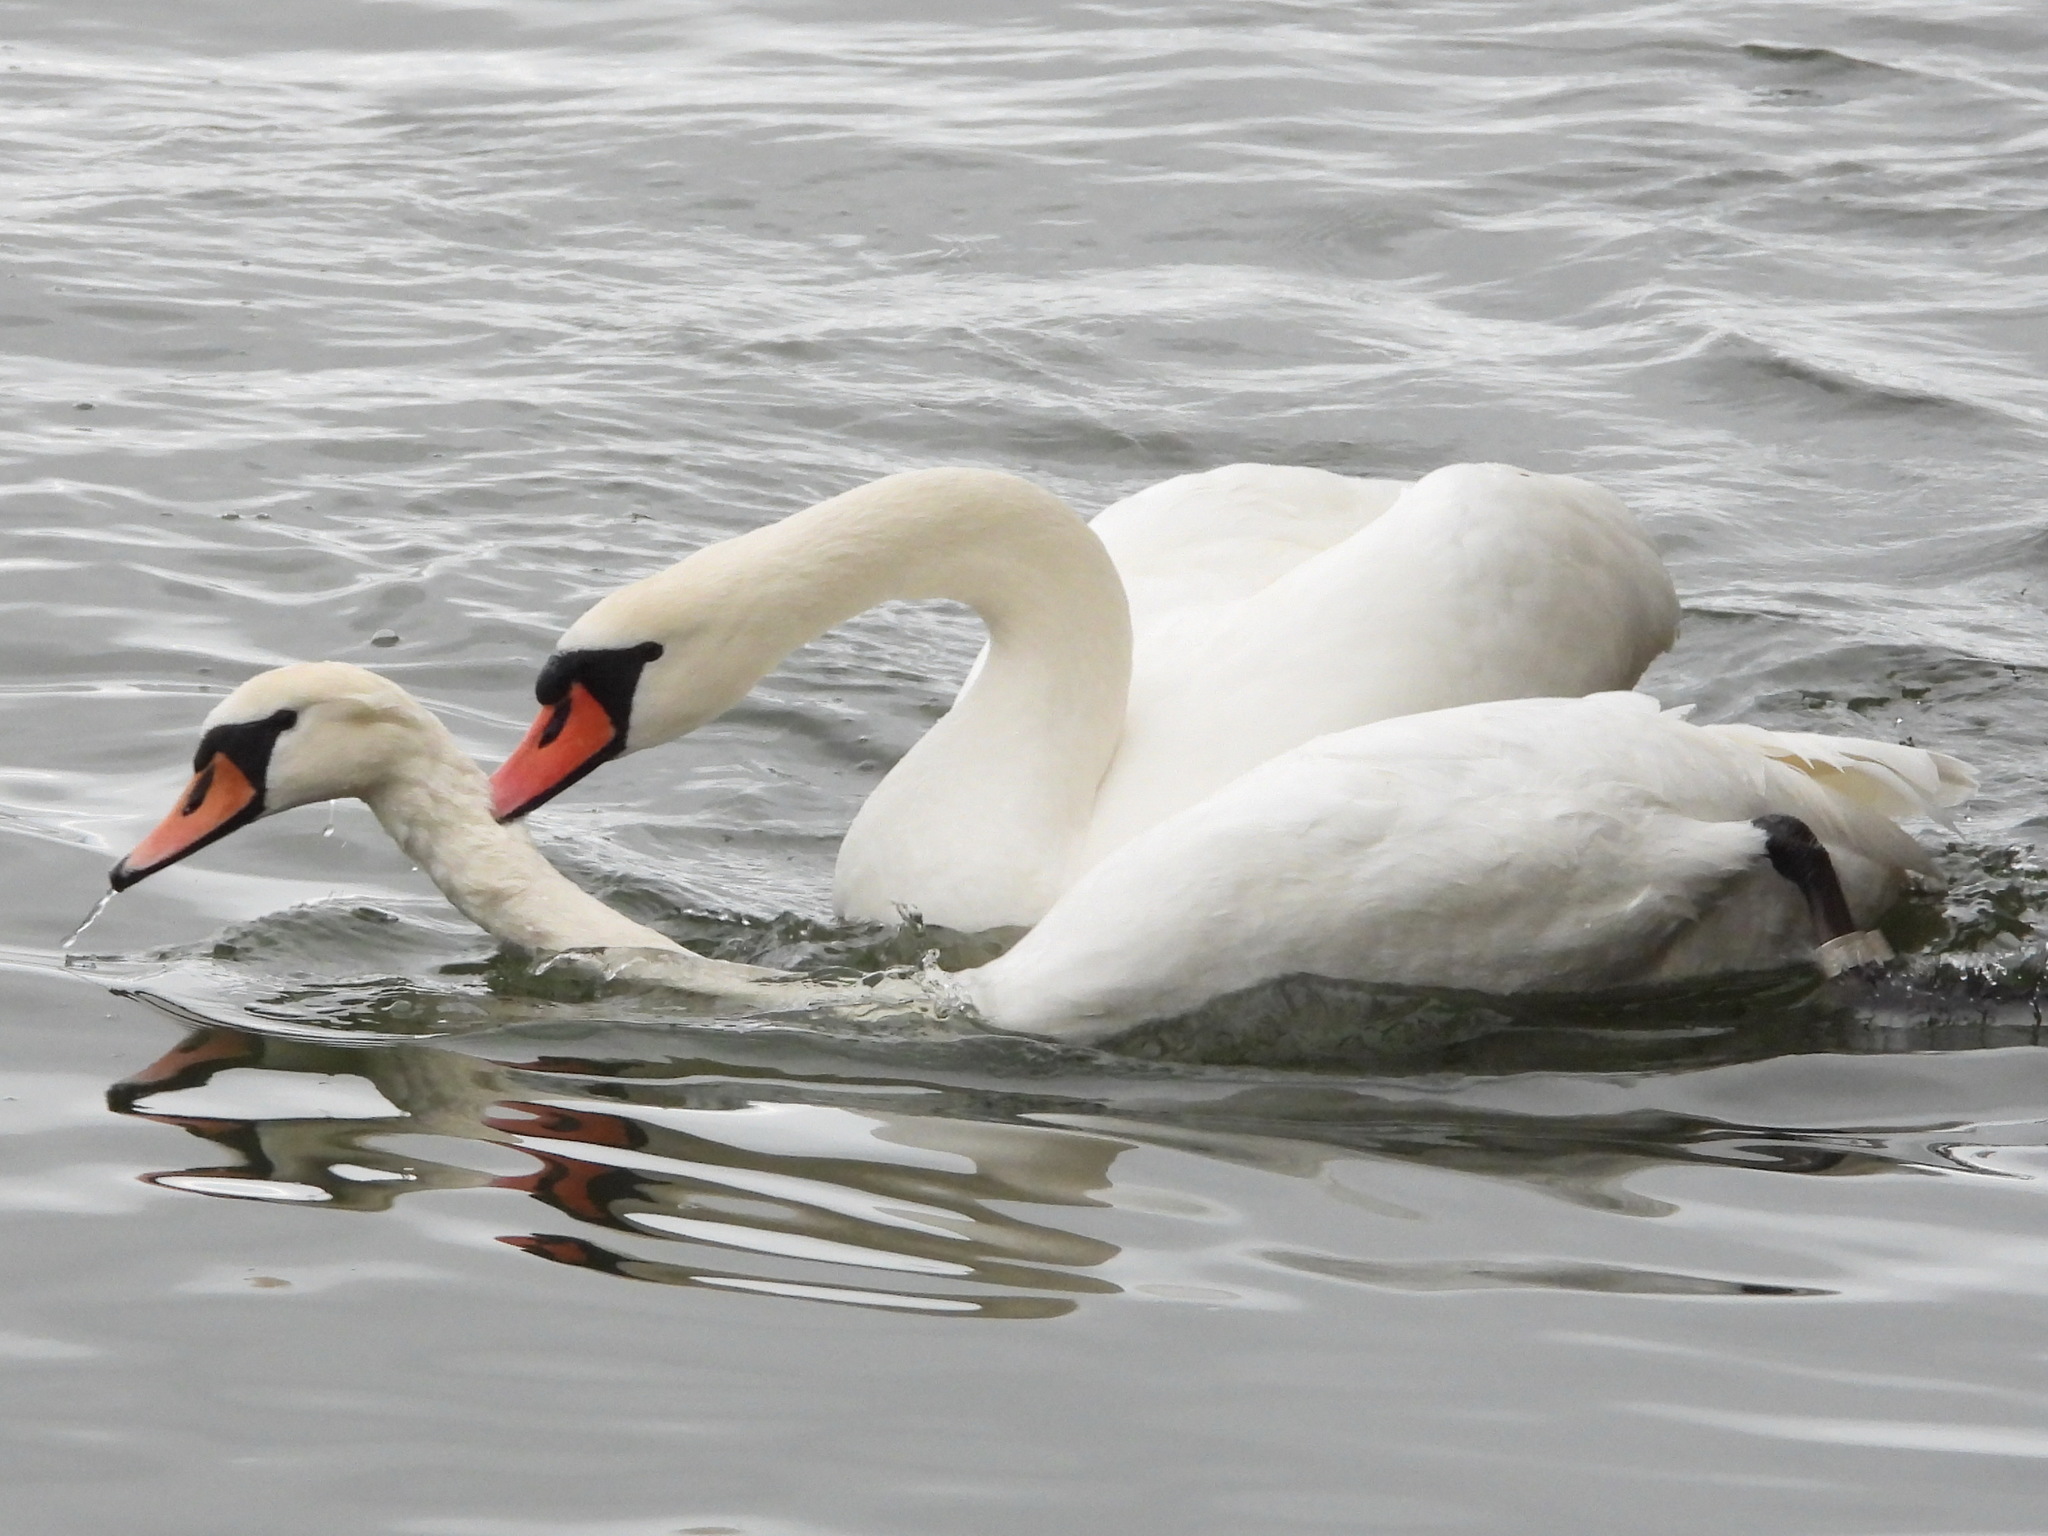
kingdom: Animalia
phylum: Chordata
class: Aves
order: Anseriformes
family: Anatidae
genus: Cygnus
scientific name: Cygnus olor
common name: Mute swan
